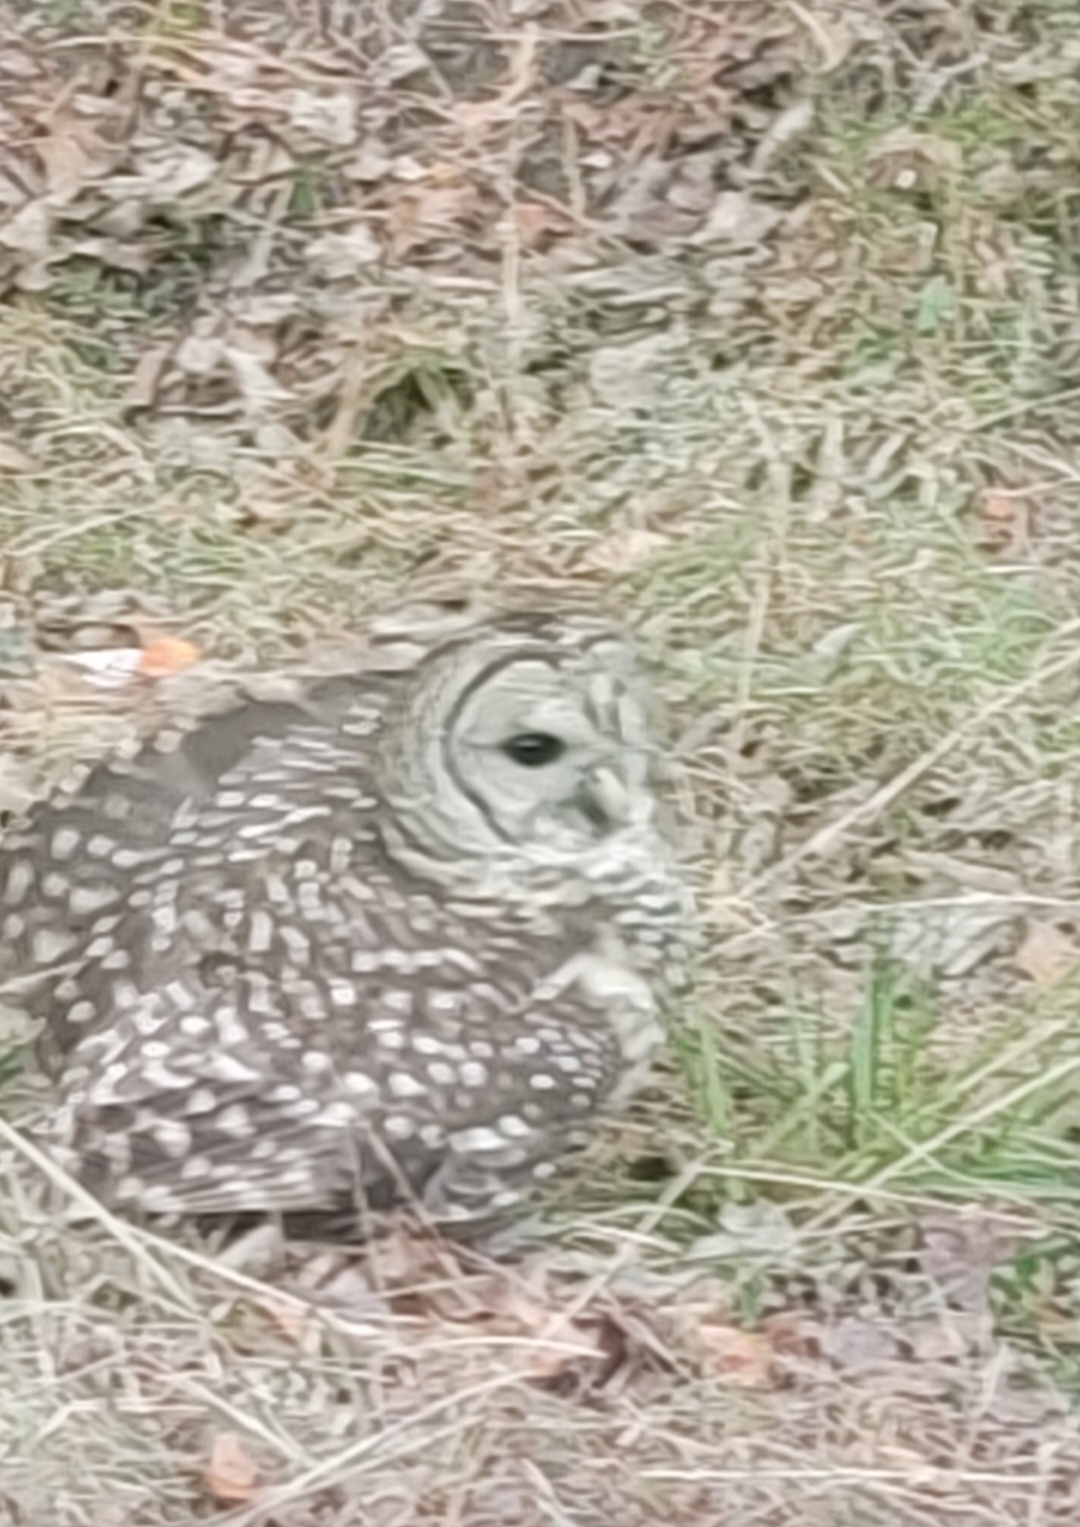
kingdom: Animalia
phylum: Chordata
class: Aves
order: Strigiformes
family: Strigidae
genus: Strix
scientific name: Strix varia
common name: Barred owl
